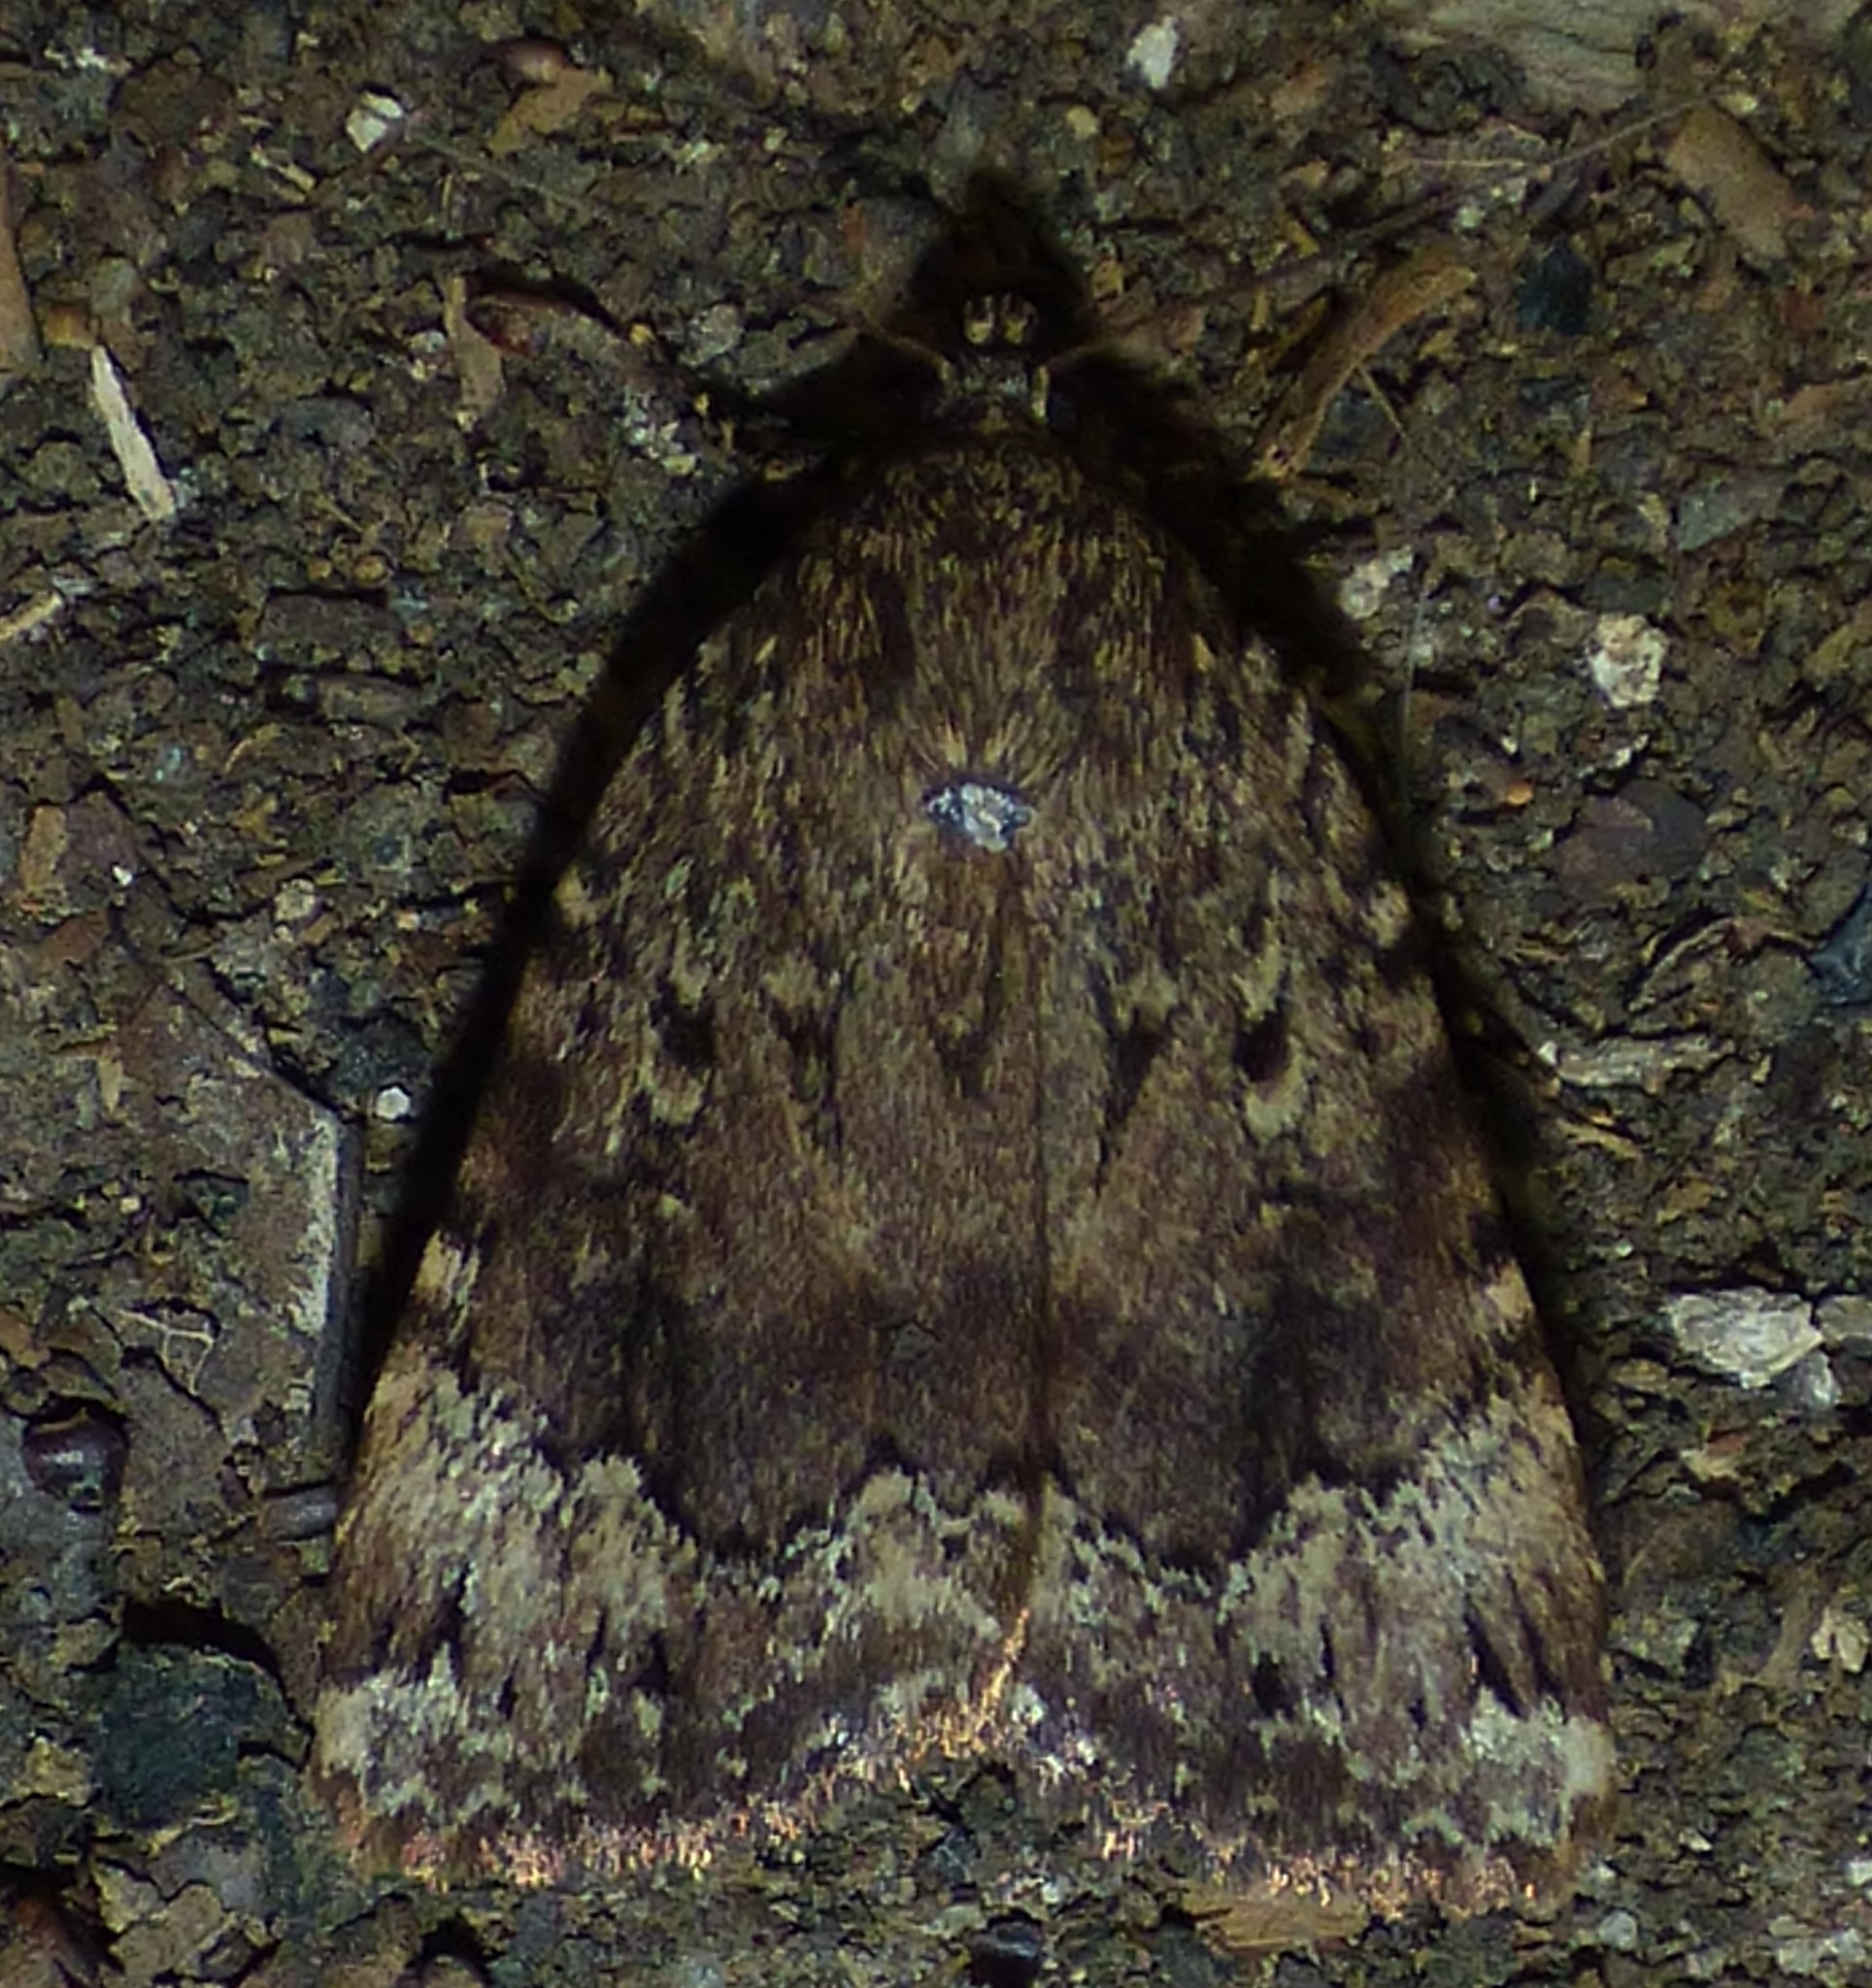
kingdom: Animalia
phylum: Arthropoda
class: Insecta
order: Lepidoptera
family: Noctuidae
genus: Amphipyra
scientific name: Amphipyra pyramidoides
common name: American copper underwing
